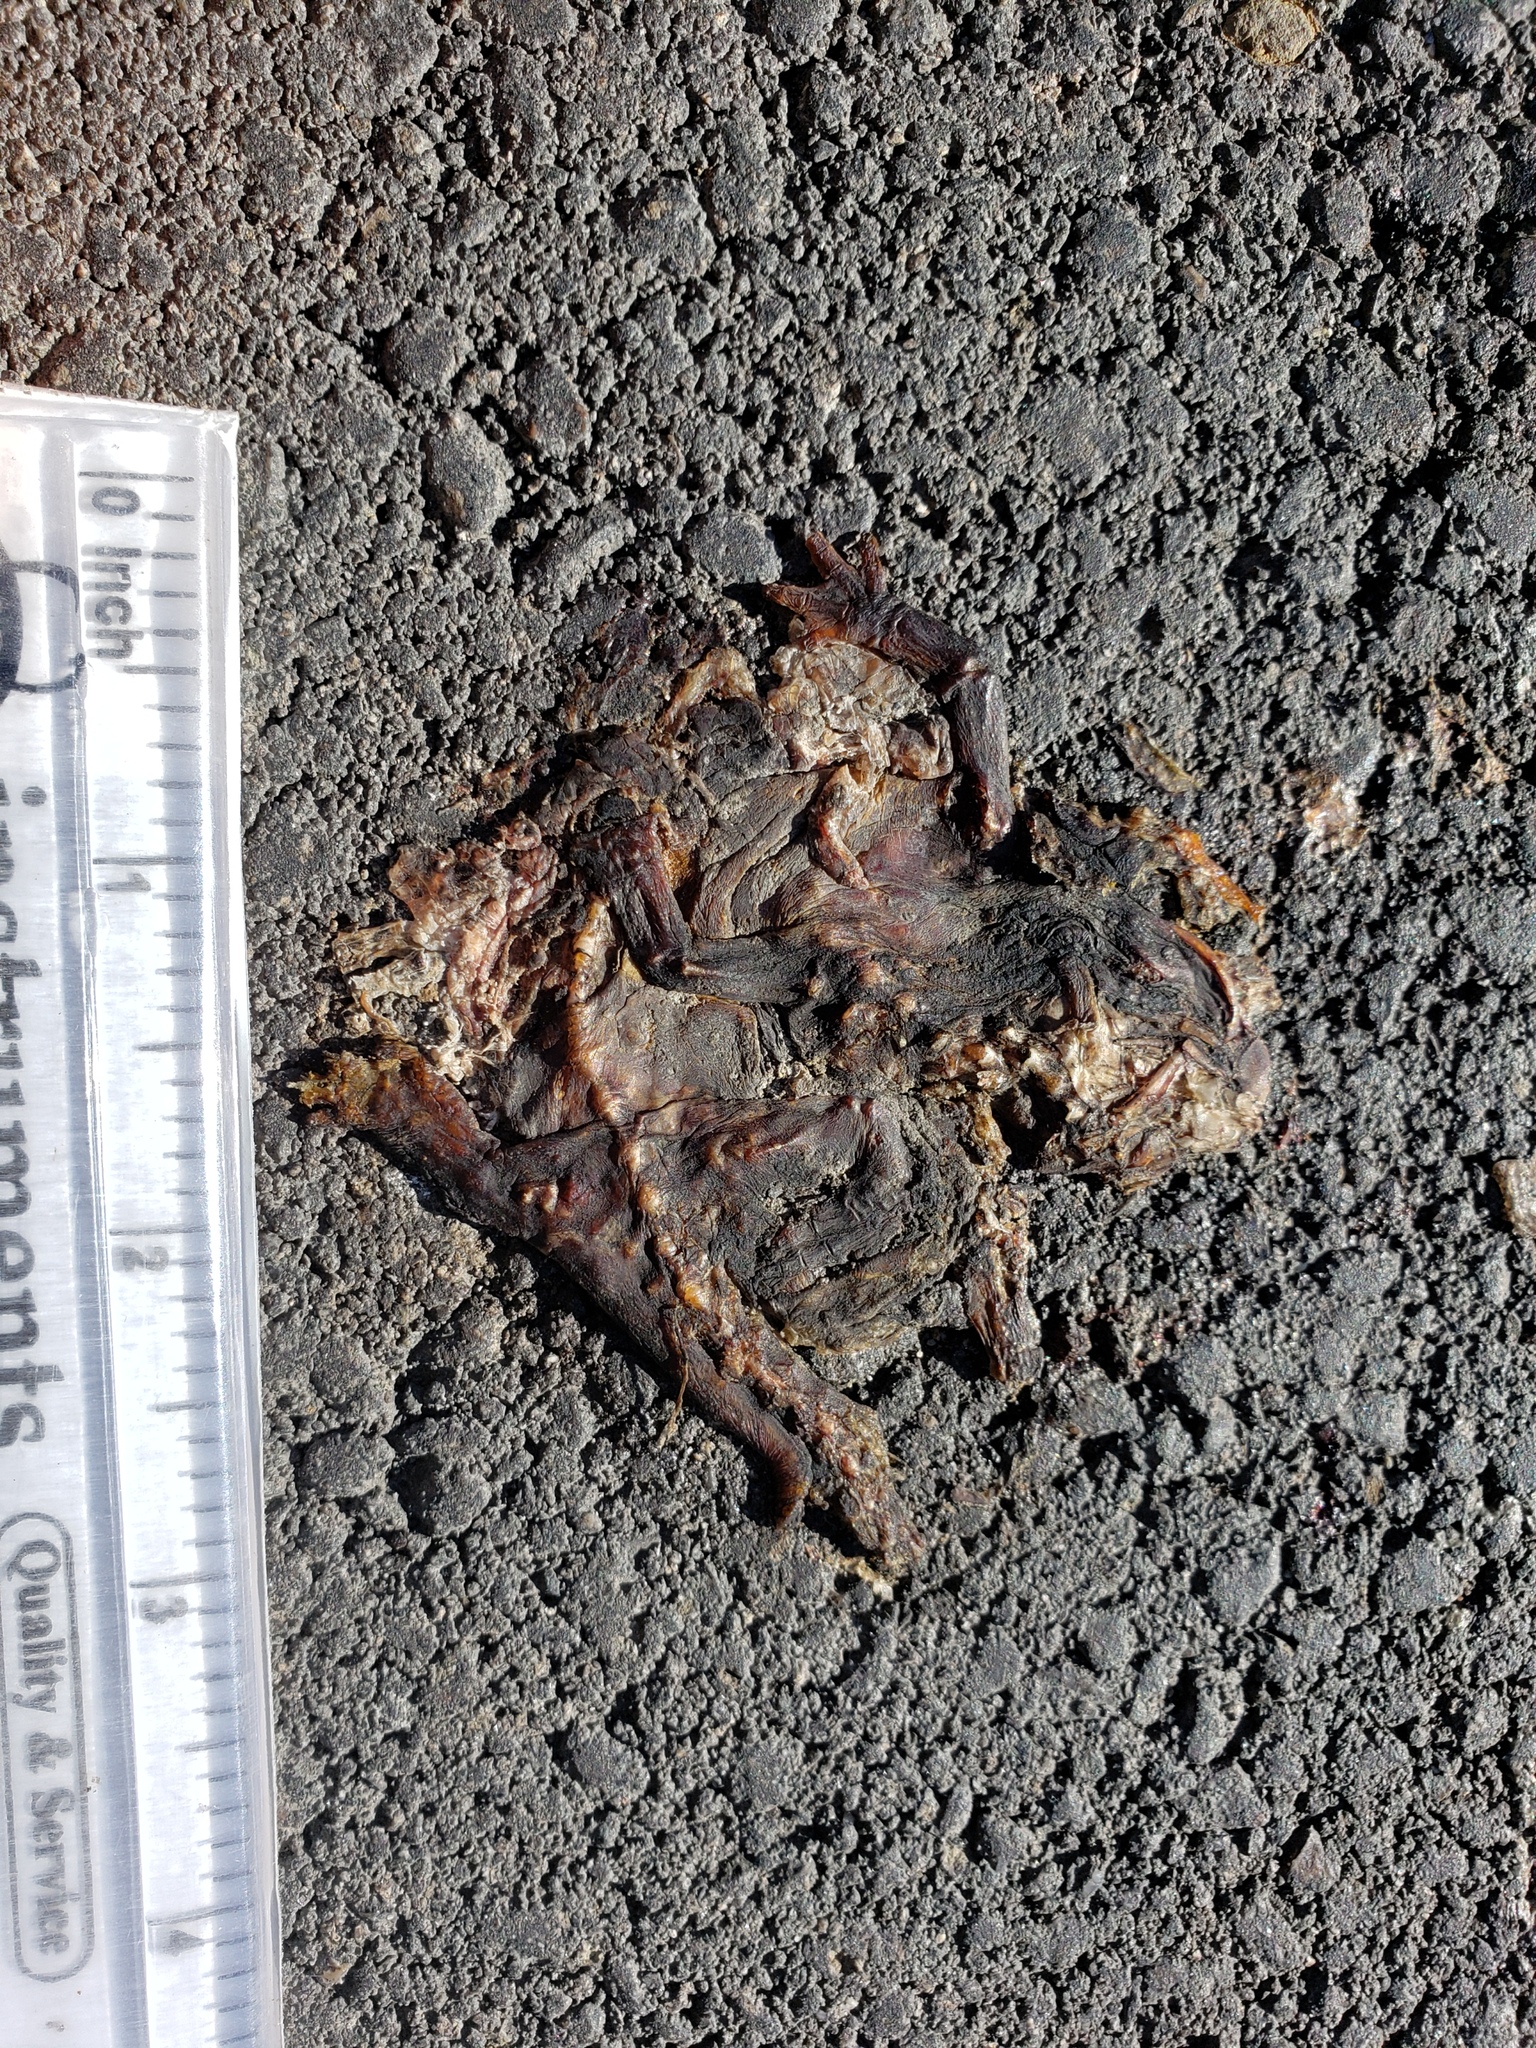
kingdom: Animalia
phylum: Chordata
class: Amphibia
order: Caudata
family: Salamandridae
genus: Taricha
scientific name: Taricha
